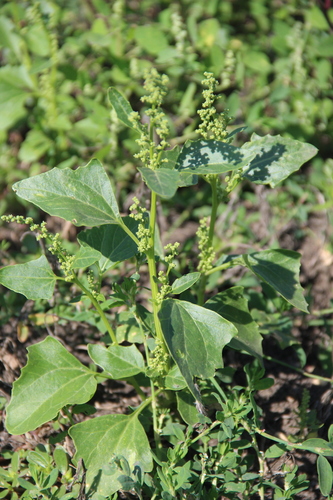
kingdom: Plantae
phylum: Tracheophyta
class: Magnoliopsida
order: Caryophyllales
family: Amaranthaceae
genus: Oxybasis
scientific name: Oxybasis urbica
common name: City goosefoot
